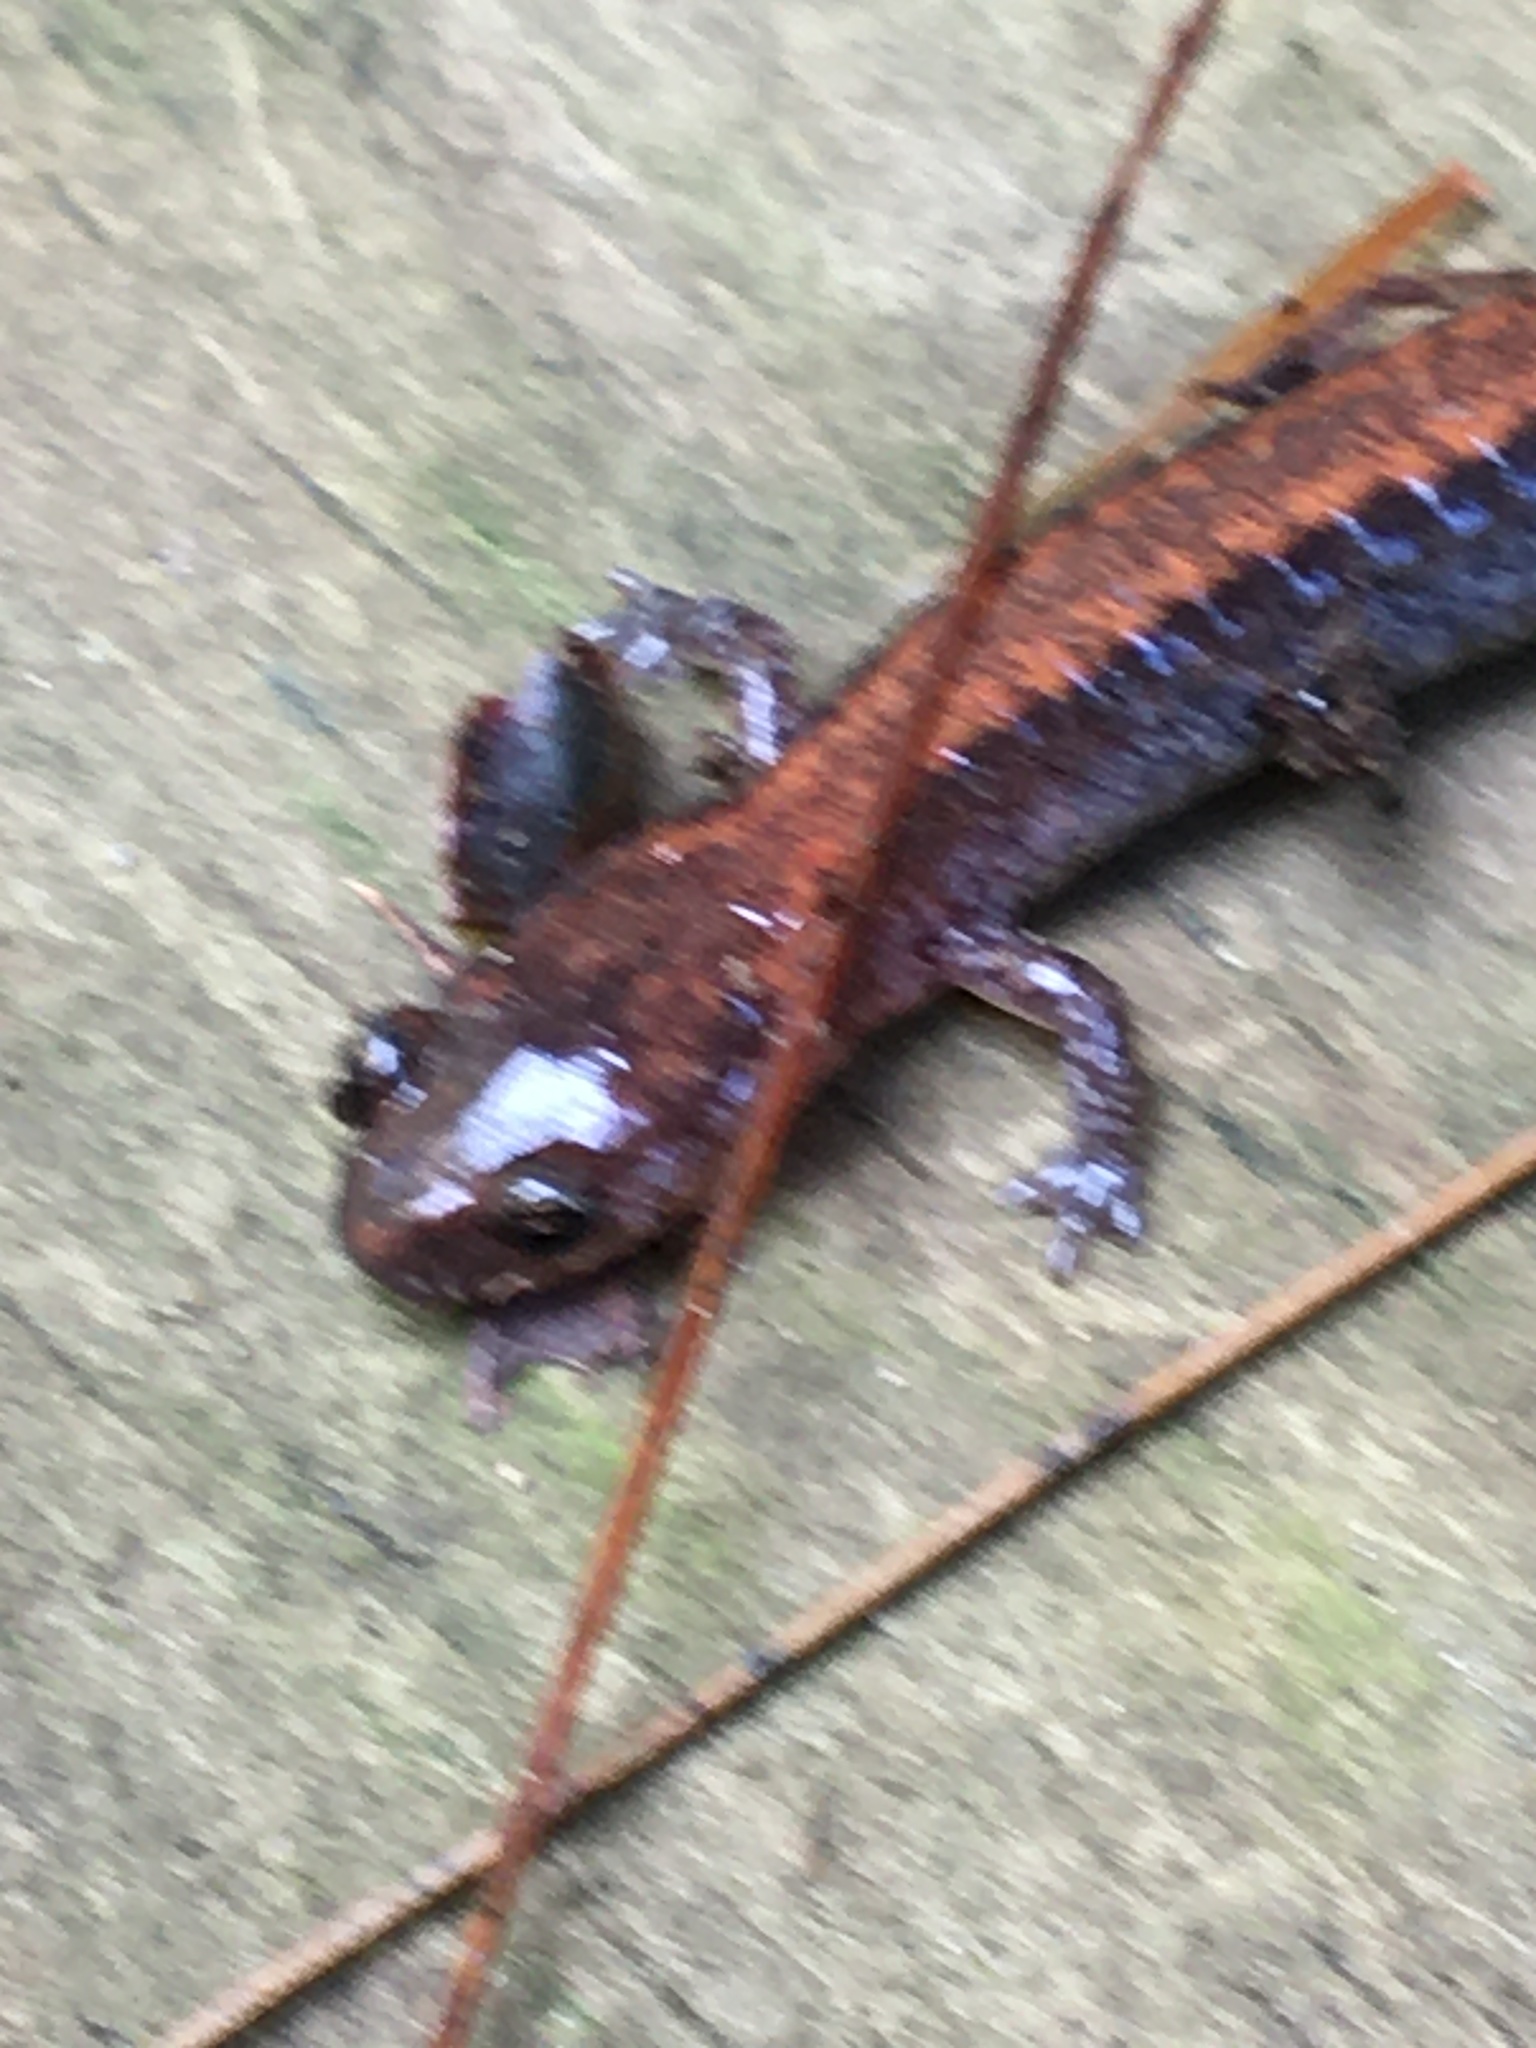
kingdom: Animalia
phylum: Chordata
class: Amphibia
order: Caudata
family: Plethodontidae
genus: Plethodon
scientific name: Plethodon cinereus
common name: Redback salamander
